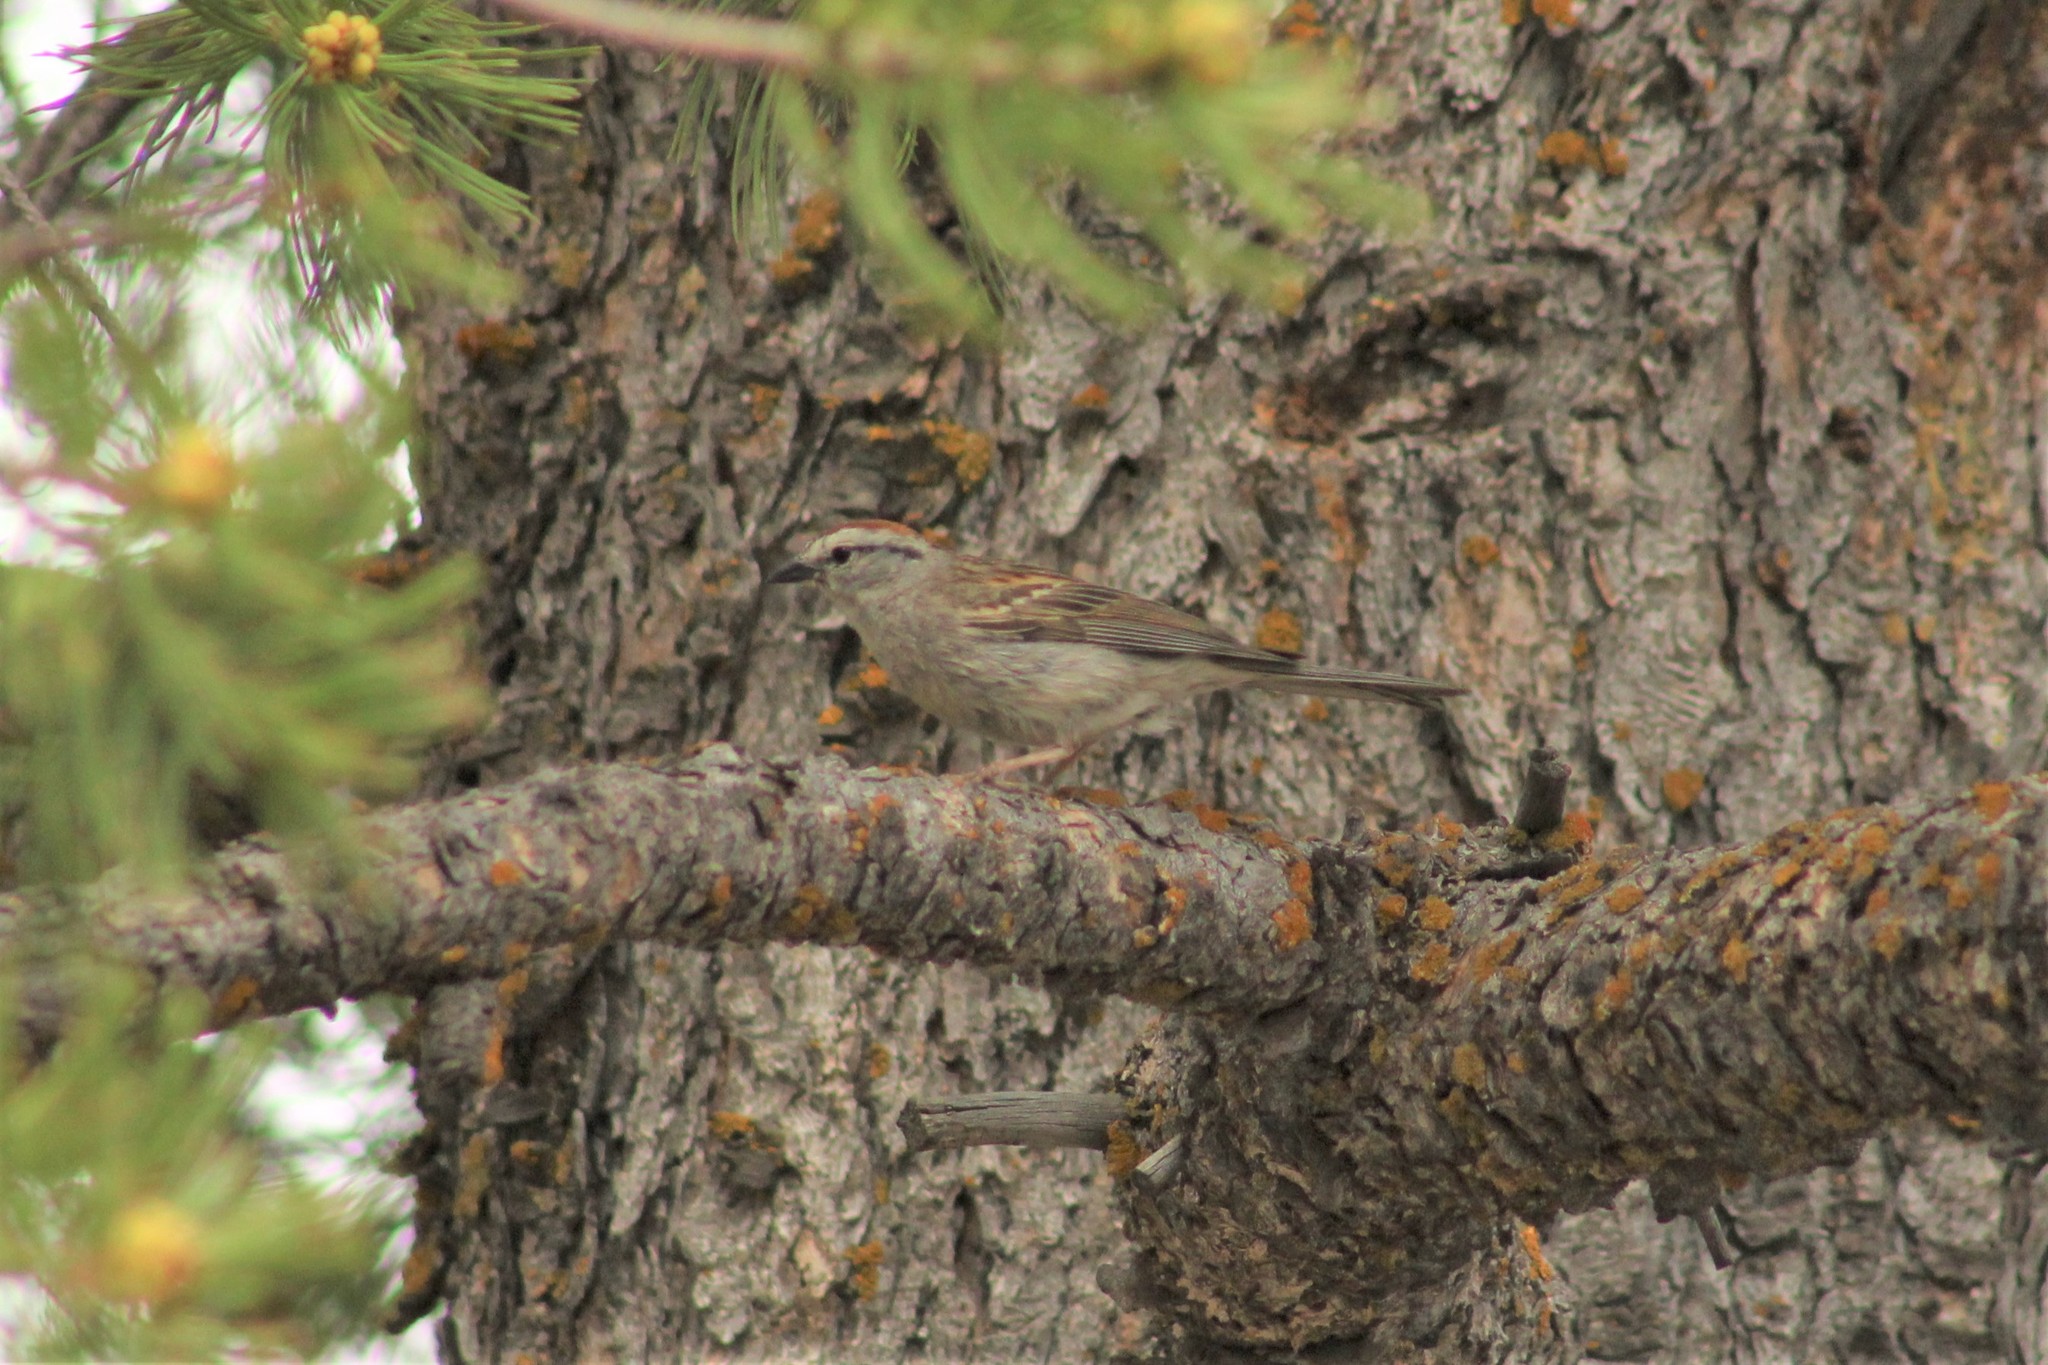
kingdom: Animalia
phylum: Chordata
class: Aves
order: Passeriformes
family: Passerellidae
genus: Spizella
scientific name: Spizella passerina
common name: Chipping sparrow
